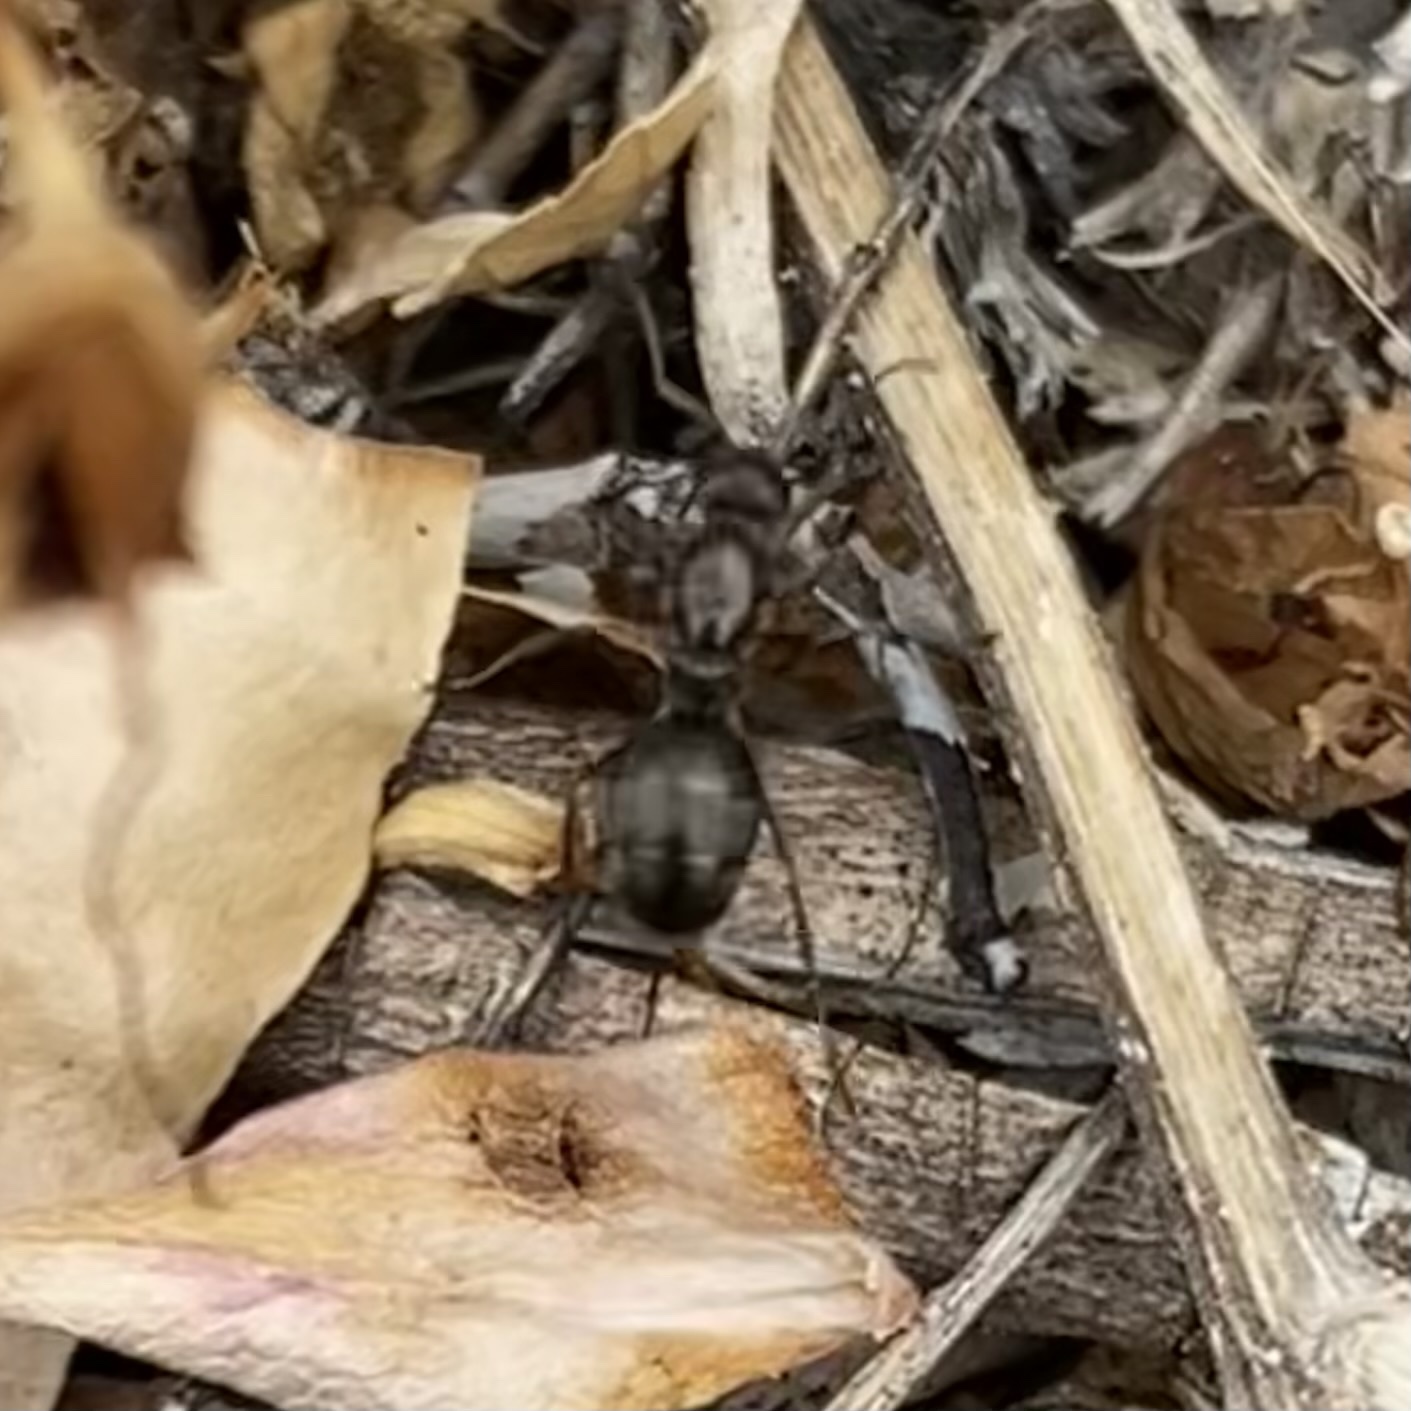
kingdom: Animalia
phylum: Arthropoda
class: Insecta
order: Hymenoptera
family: Formicidae
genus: Formica
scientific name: Formica
